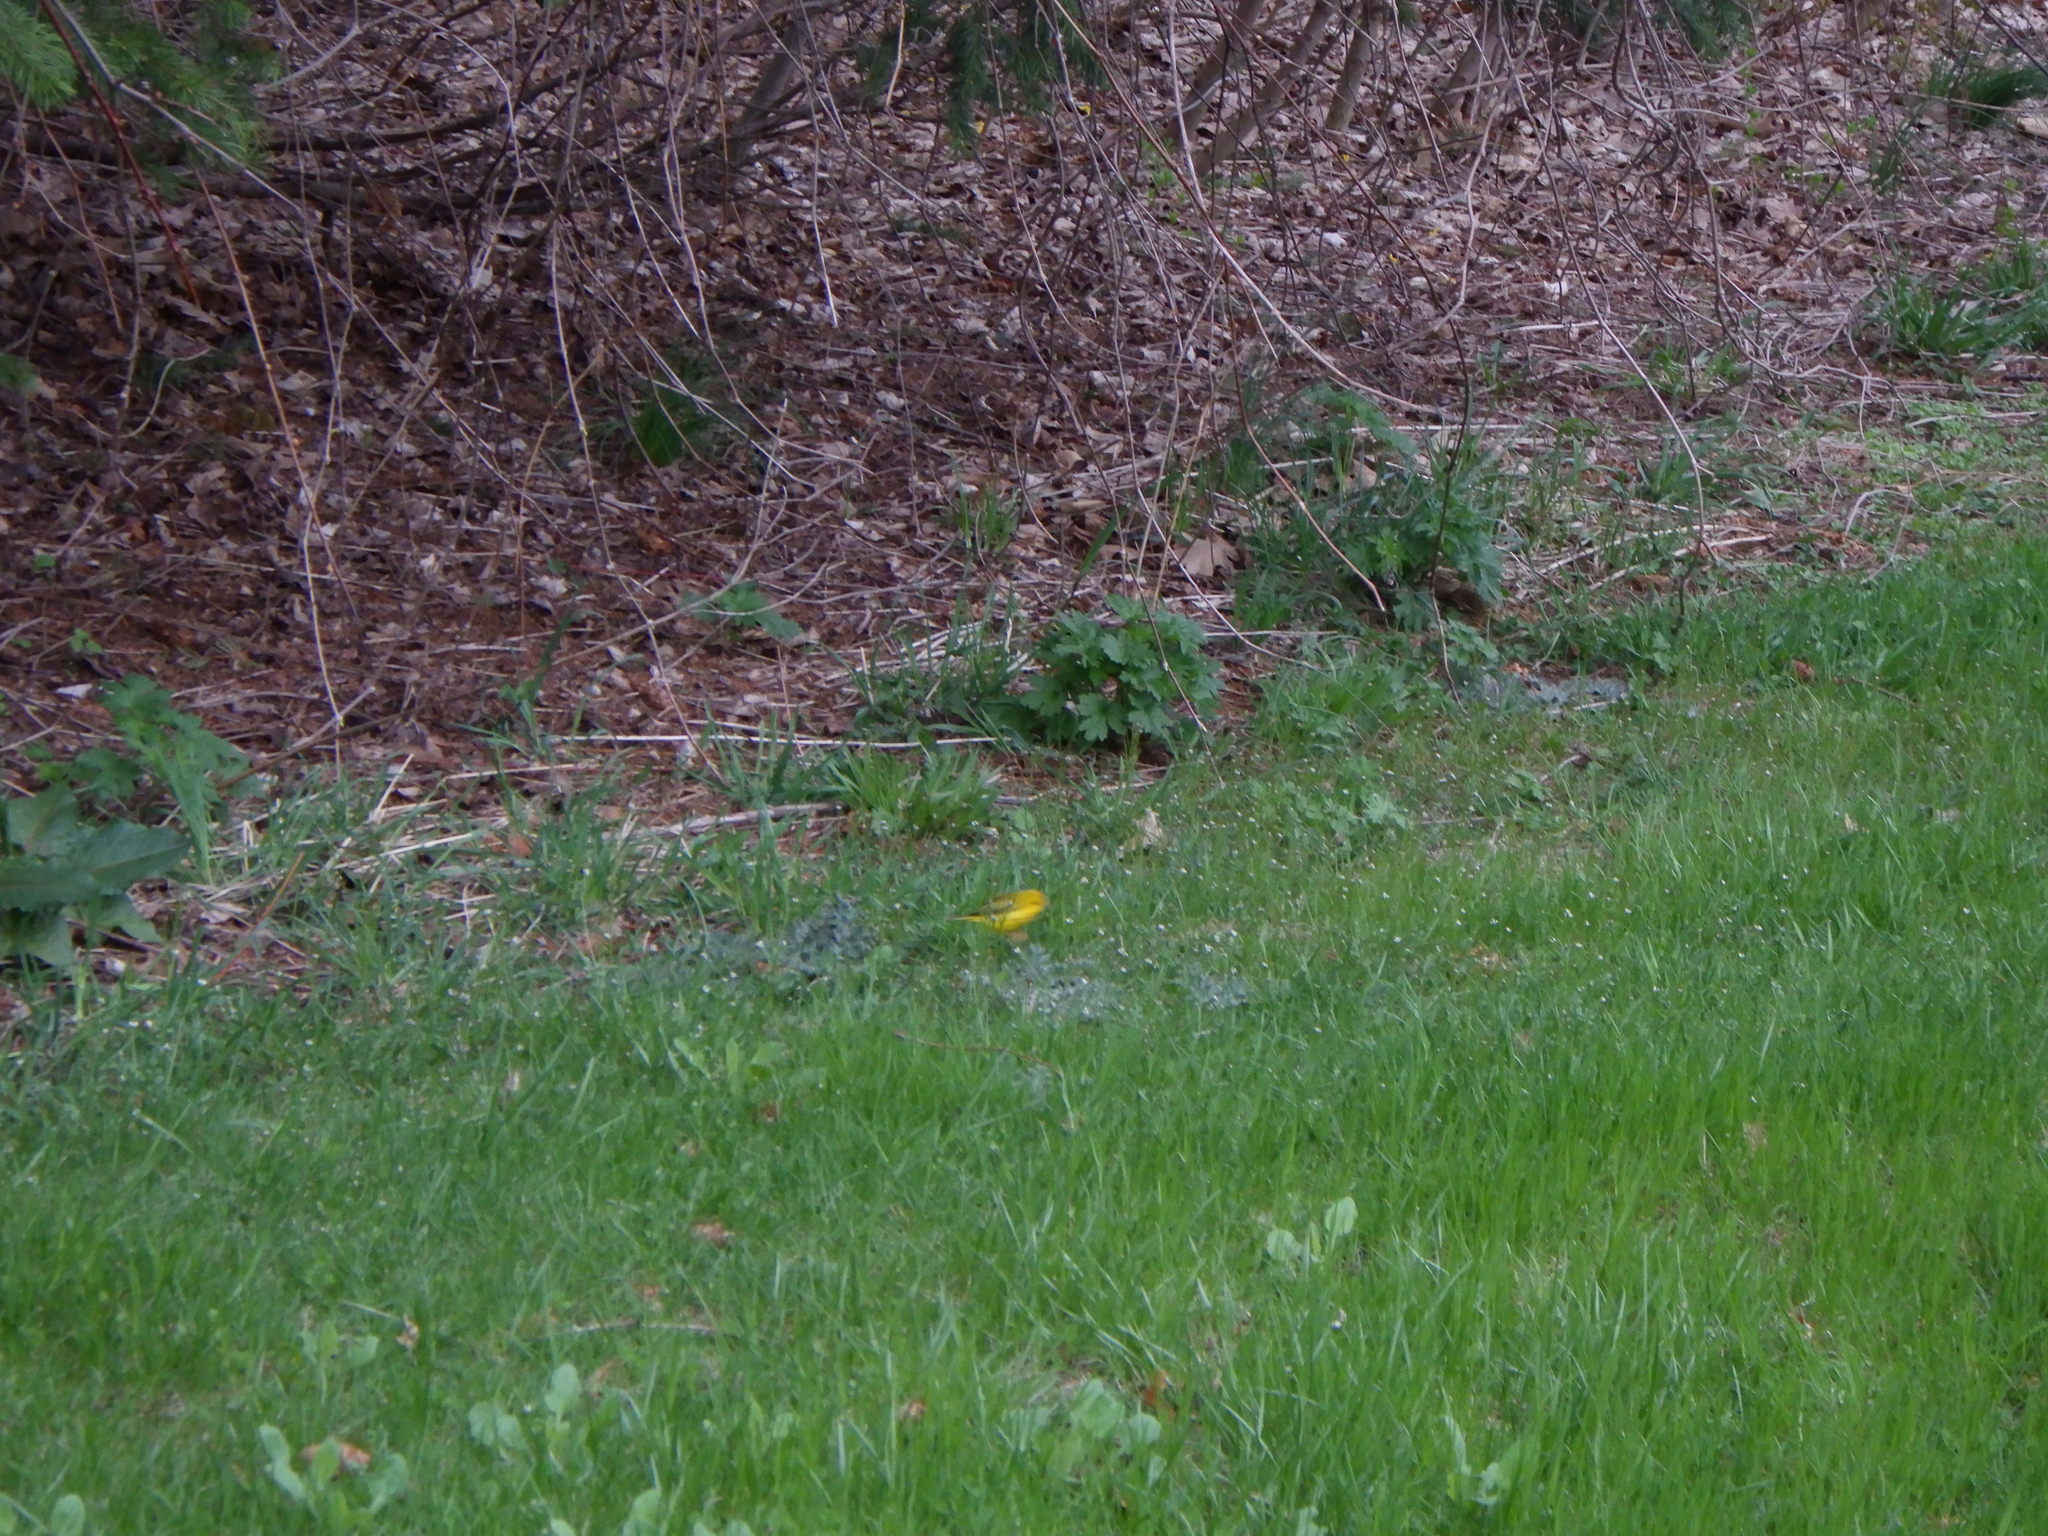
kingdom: Animalia
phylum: Chordata
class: Aves
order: Passeriformes
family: Parulidae
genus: Setophaga
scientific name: Setophaga petechia
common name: Yellow warbler
